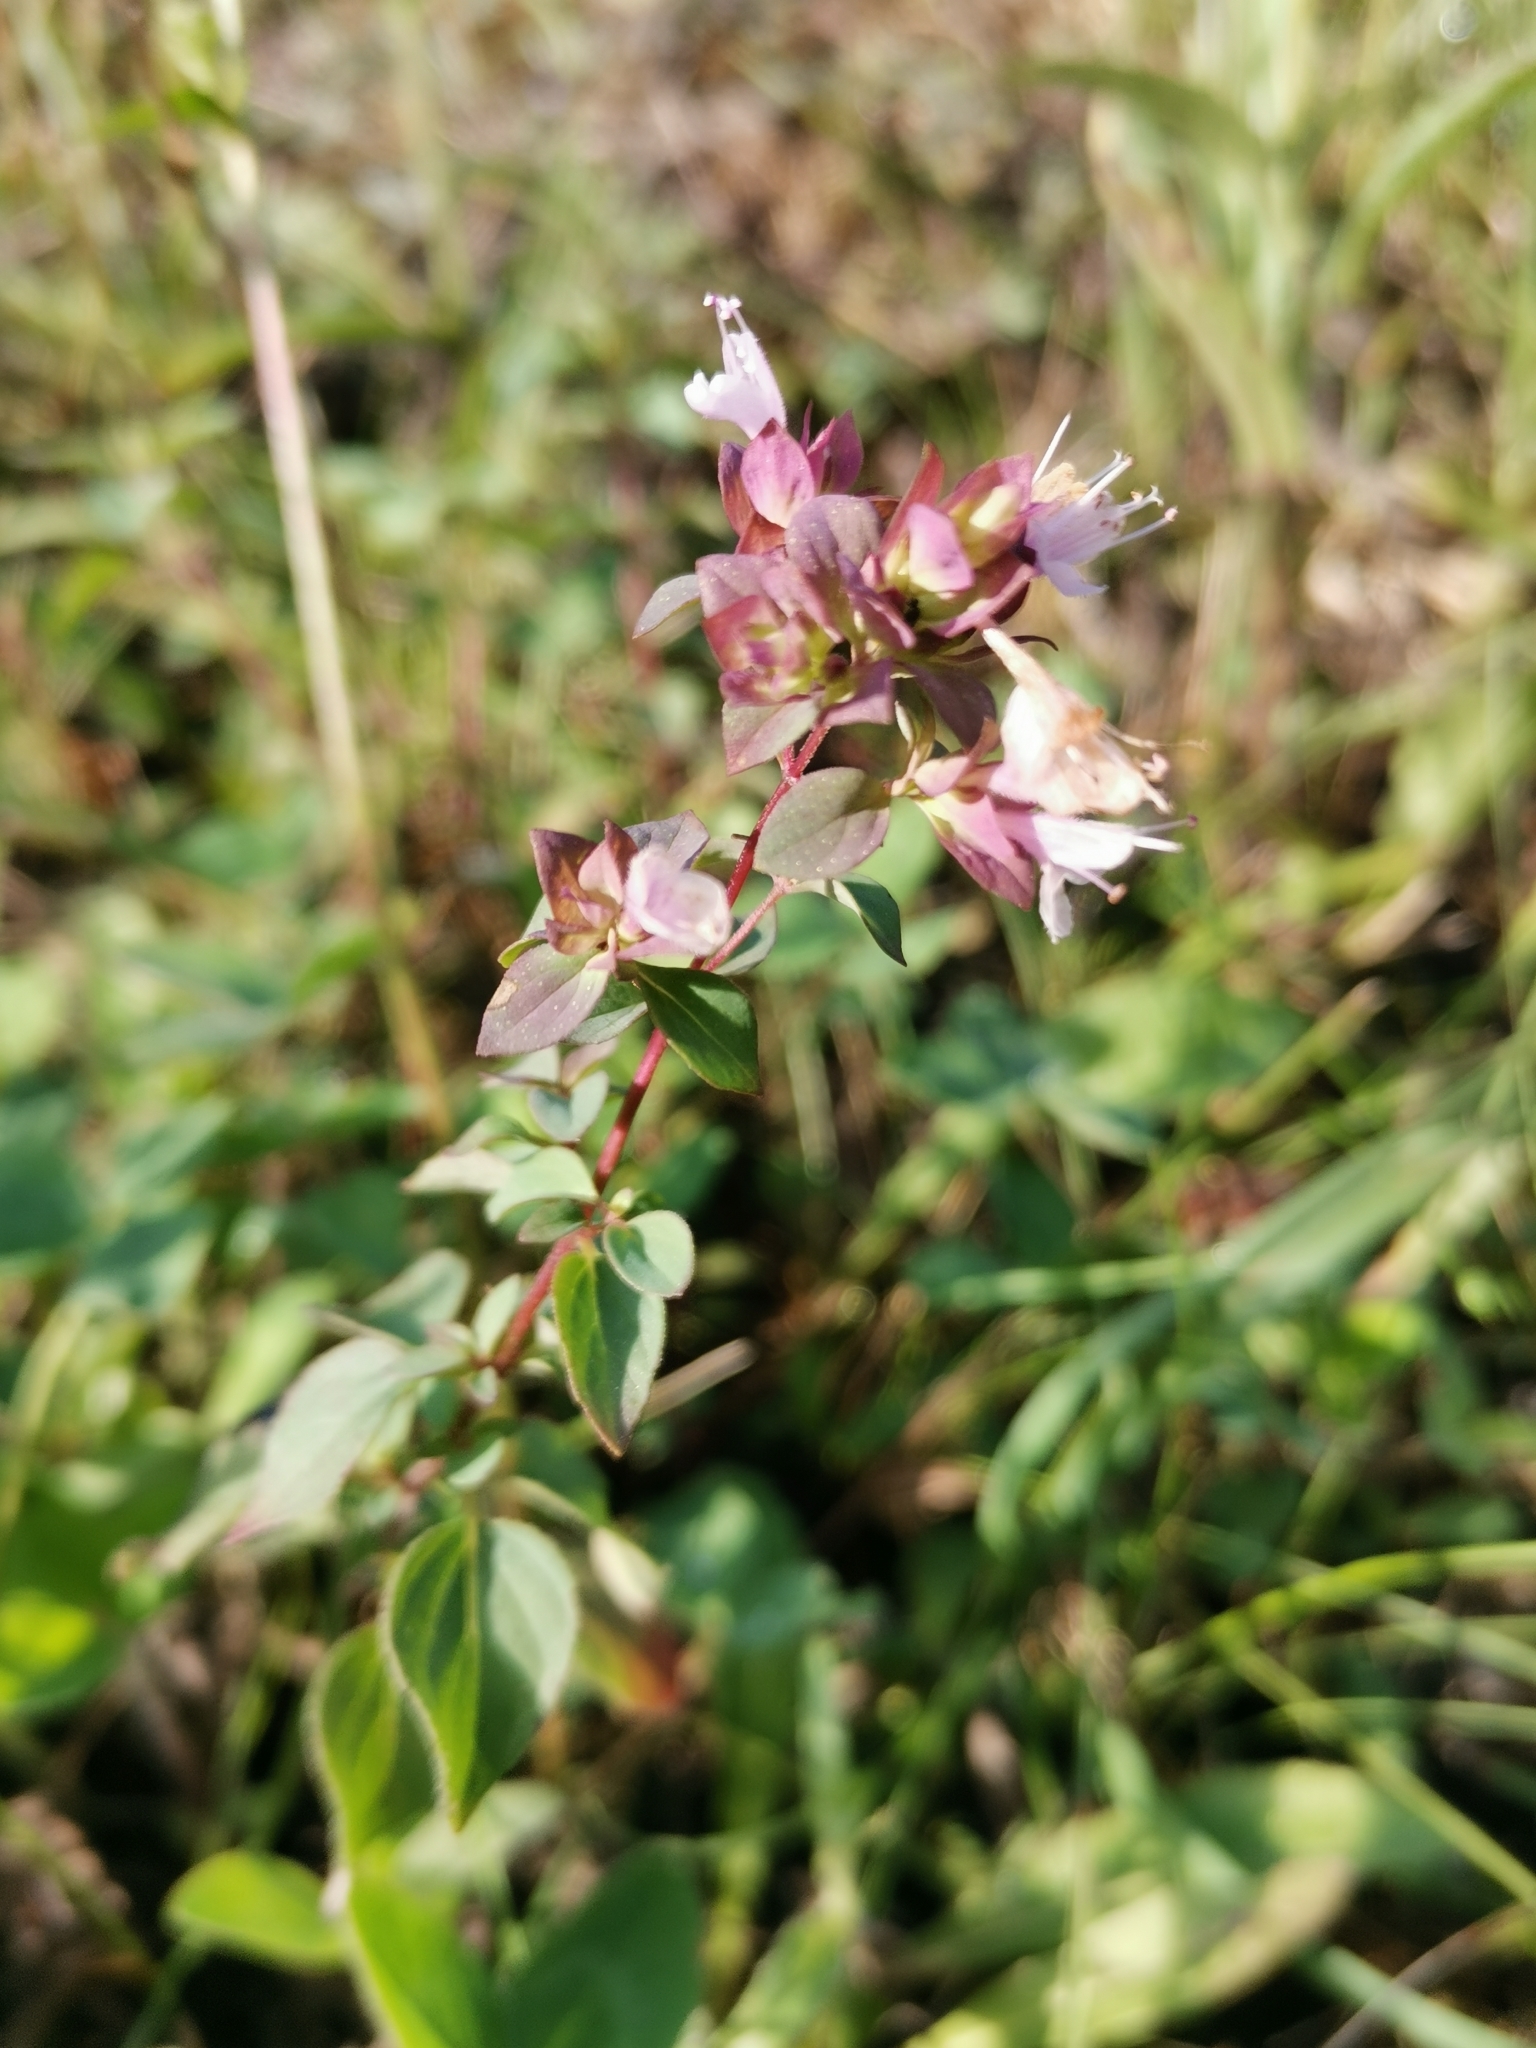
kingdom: Plantae
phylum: Tracheophyta
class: Magnoliopsida
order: Lamiales
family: Lamiaceae
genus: Origanum
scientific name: Origanum vulgare
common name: Wild marjoram
